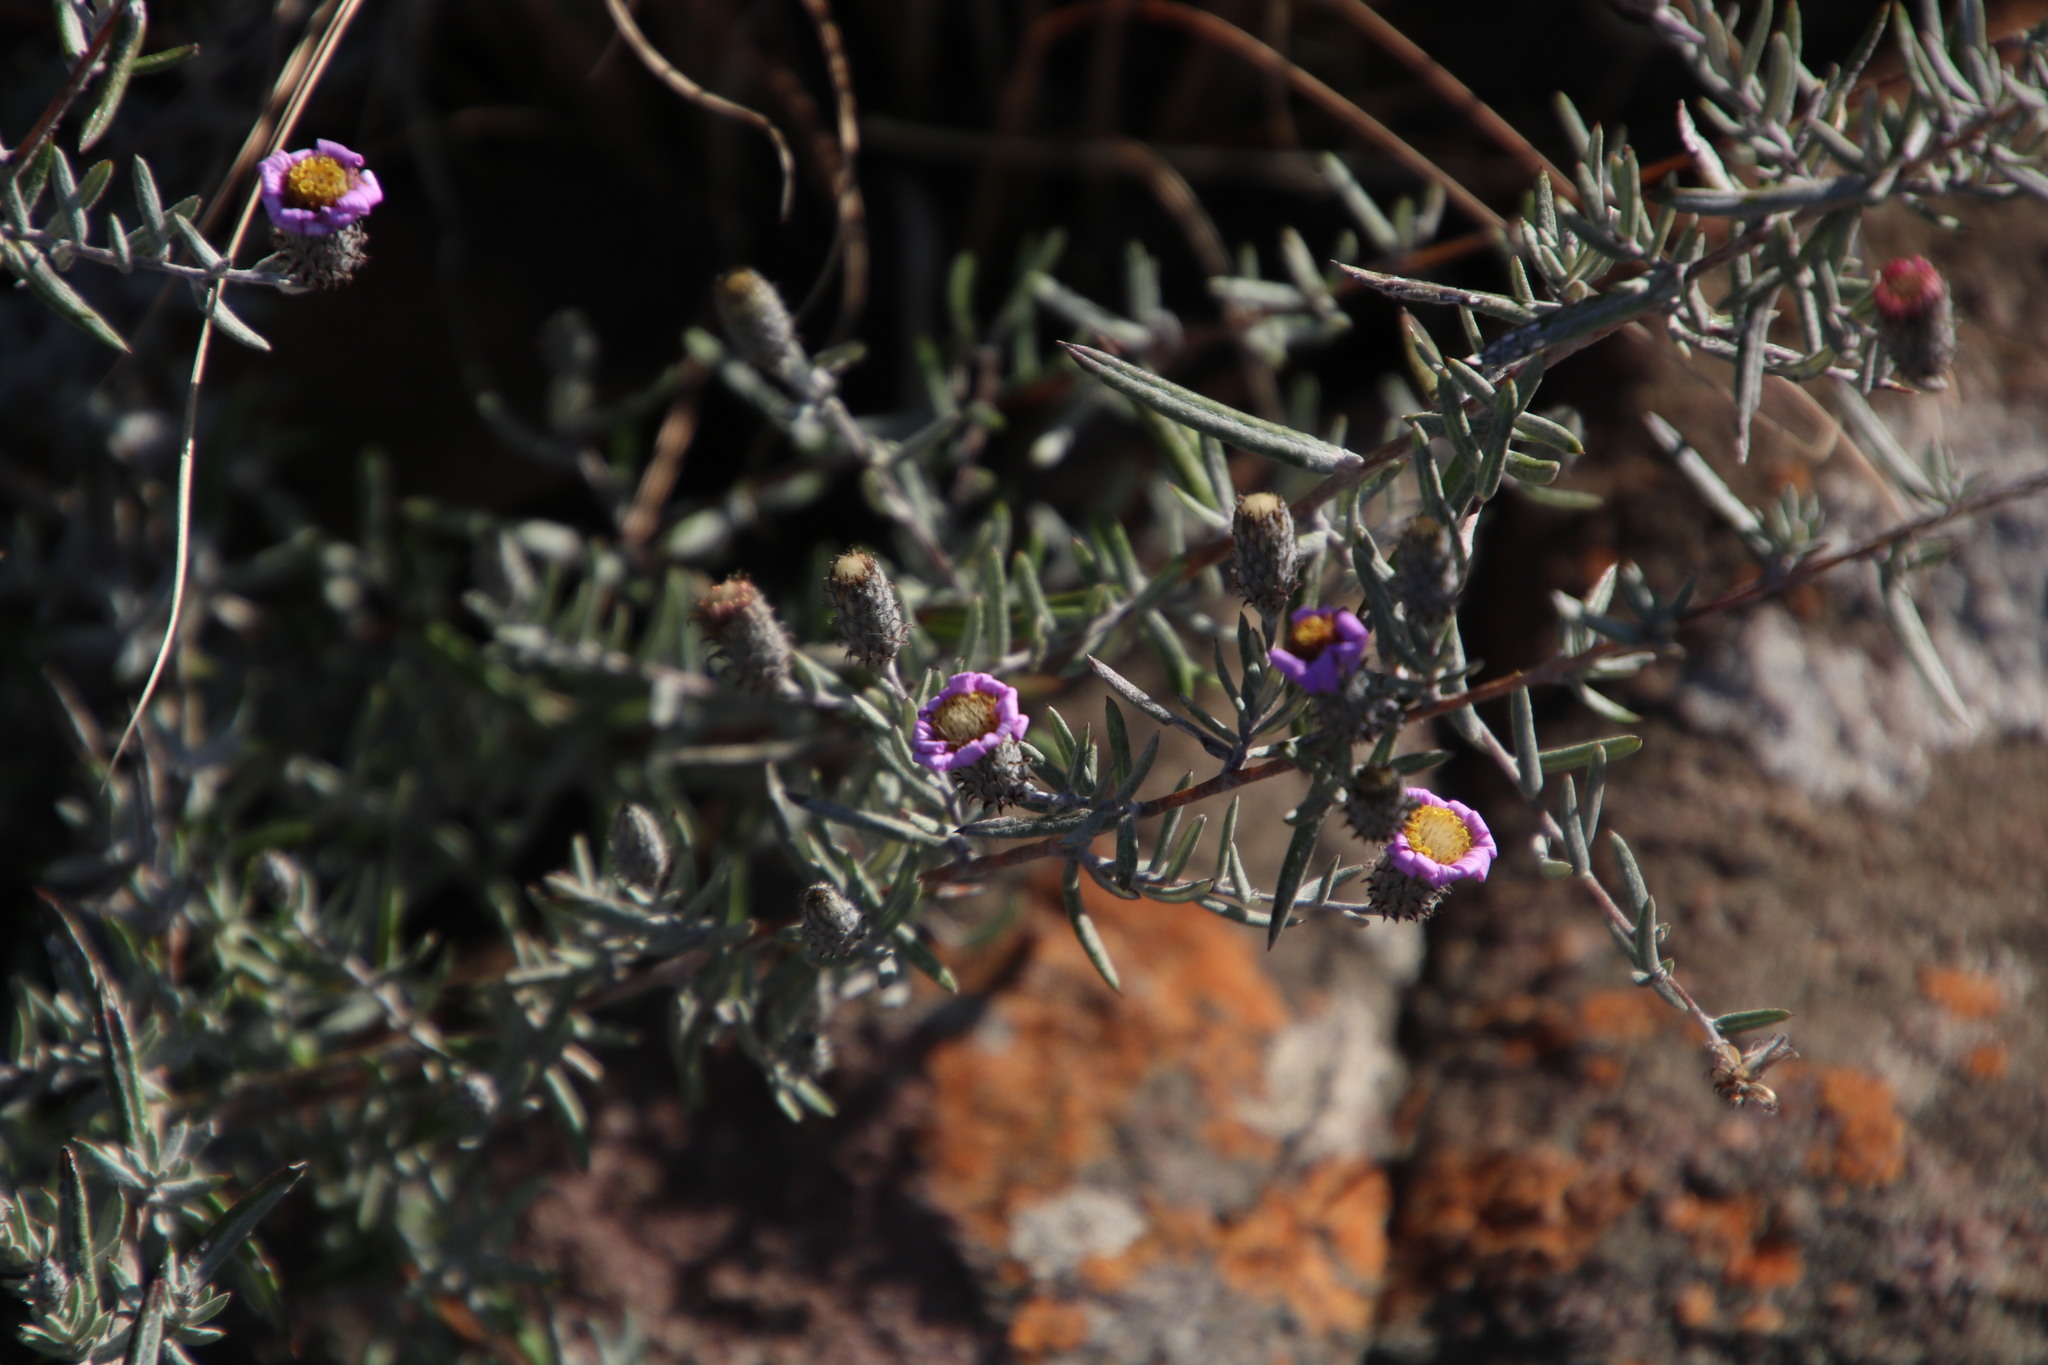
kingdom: Plantae
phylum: Tracheophyta
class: Magnoliopsida
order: Asterales
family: Asteraceae
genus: Athrixia
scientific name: Athrixia elata
